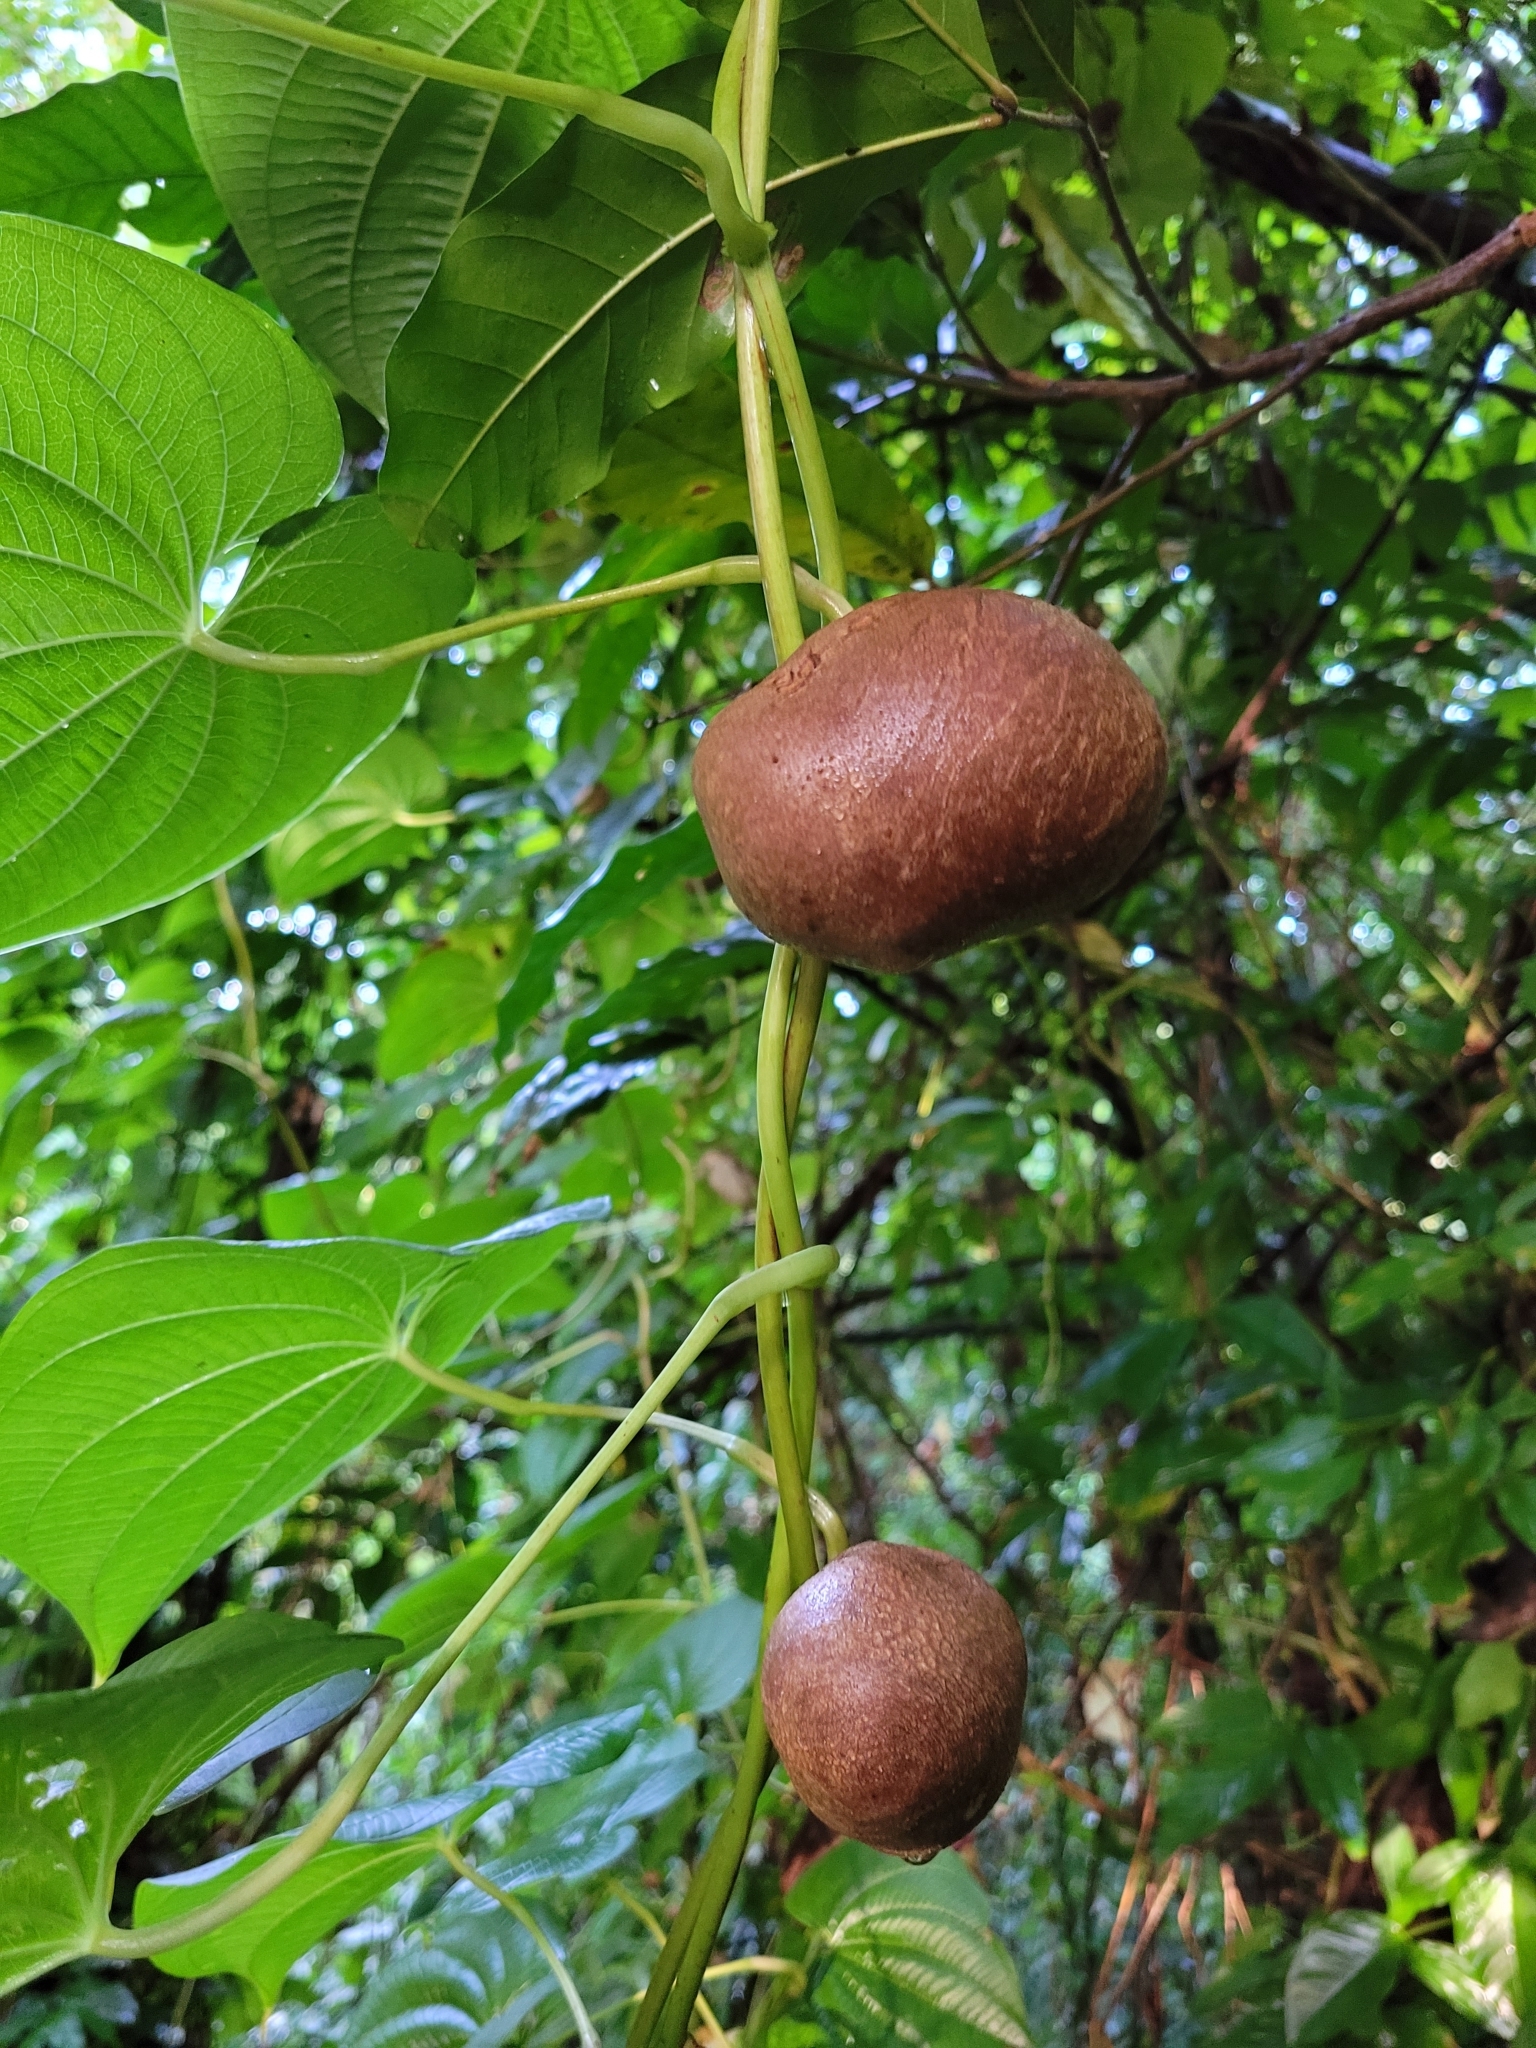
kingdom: Plantae
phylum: Tracheophyta
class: Liliopsida
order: Dioscoreales
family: Dioscoreaceae
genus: Dioscorea
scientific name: Dioscorea bulbifera
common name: Air yam
